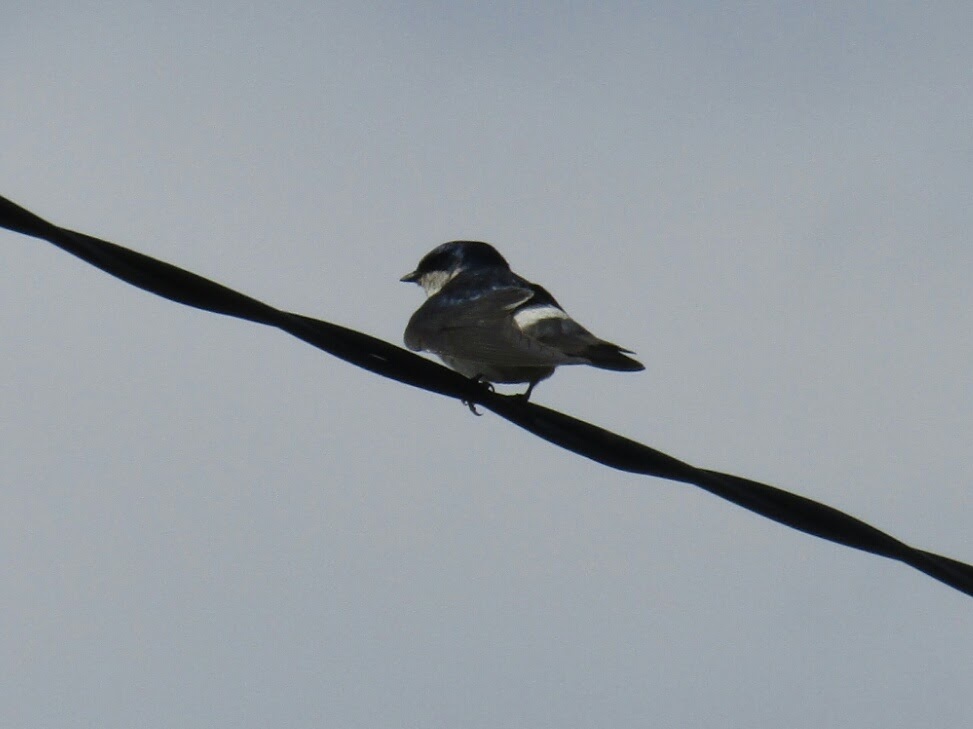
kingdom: Animalia
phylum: Chordata
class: Aves
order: Passeriformes
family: Hirundinidae
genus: Tachycineta
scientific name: Tachycineta leucopyga
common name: Chilean swallow
